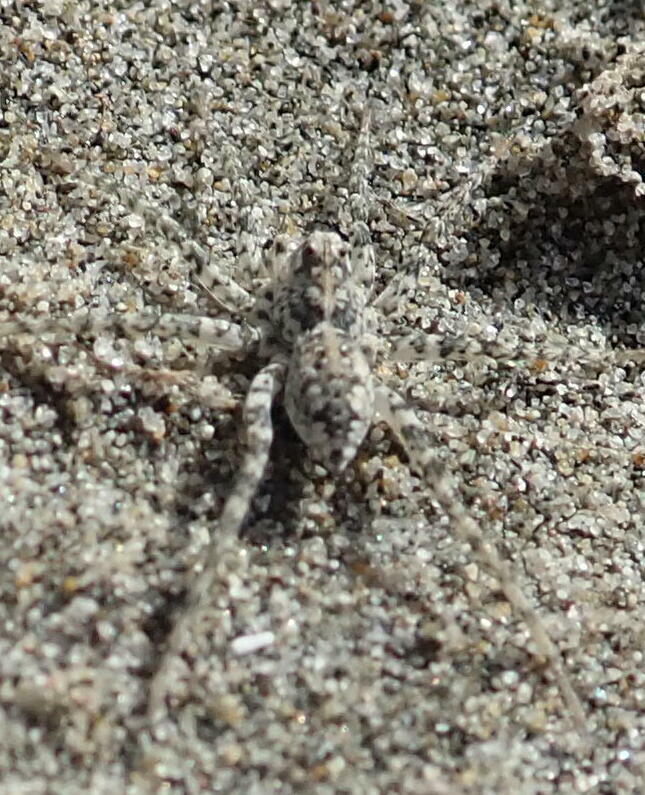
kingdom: Animalia
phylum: Arthropoda
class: Arachnida
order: Araneae
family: Lycosidae
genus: Anoteropsis
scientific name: Anoteropsis litoralis
